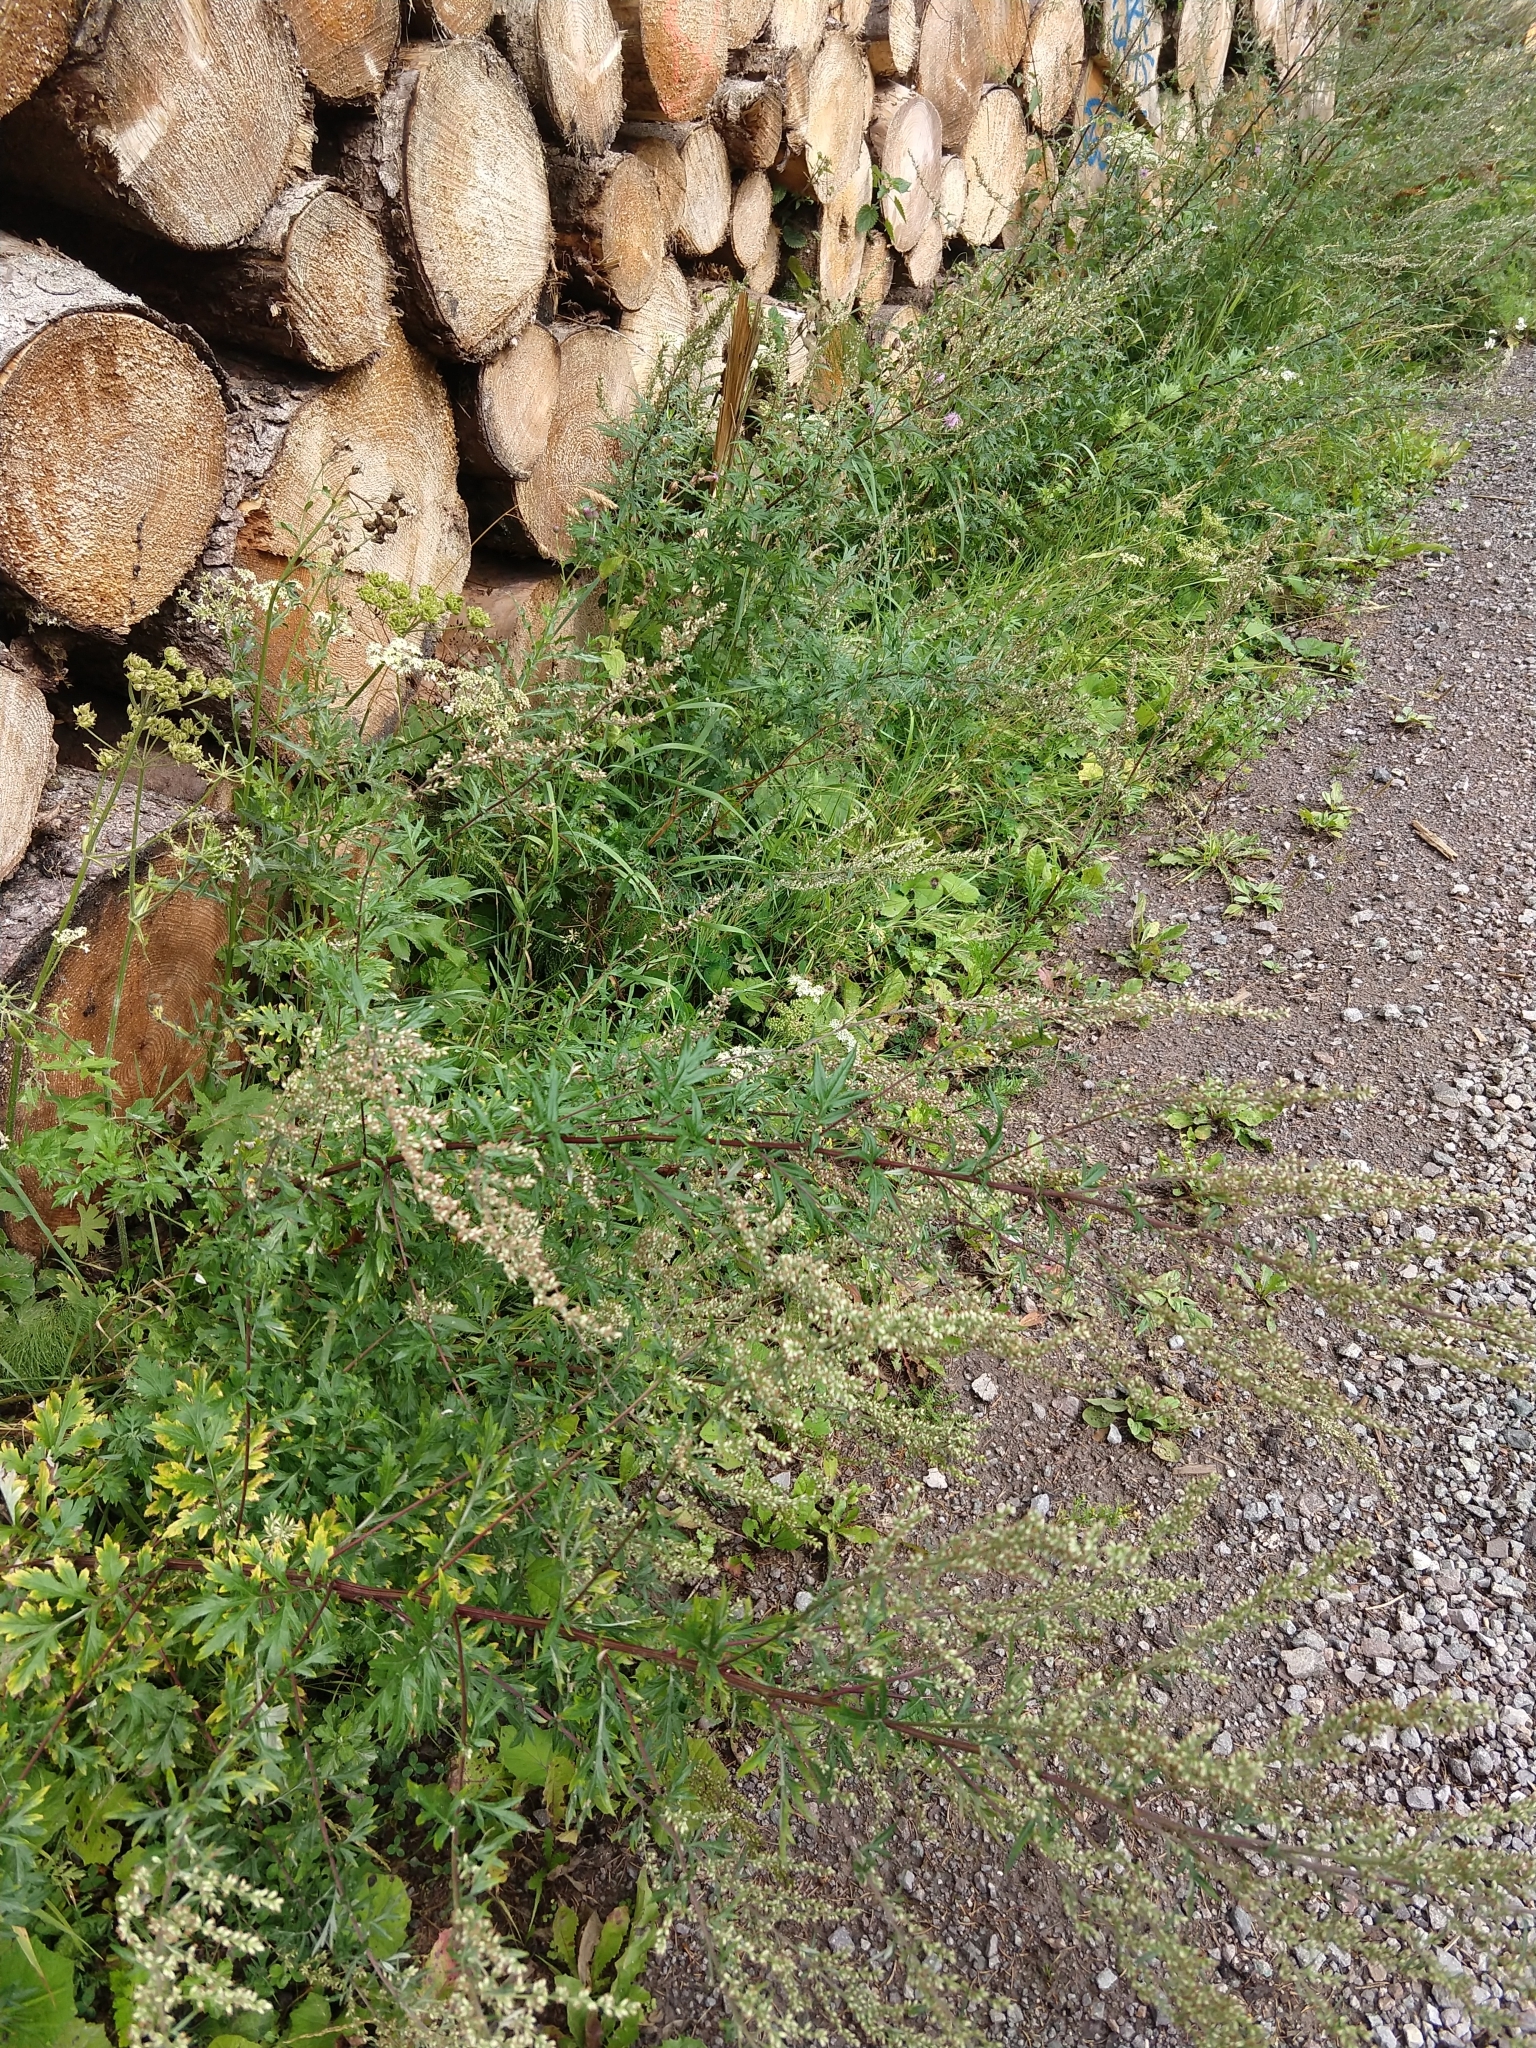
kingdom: Plantae
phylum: Tracheophyta
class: Magnoliopsida
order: Asterales
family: Asteraceae
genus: Artemisia
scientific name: Artemisia vulgaris
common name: Mugwort
